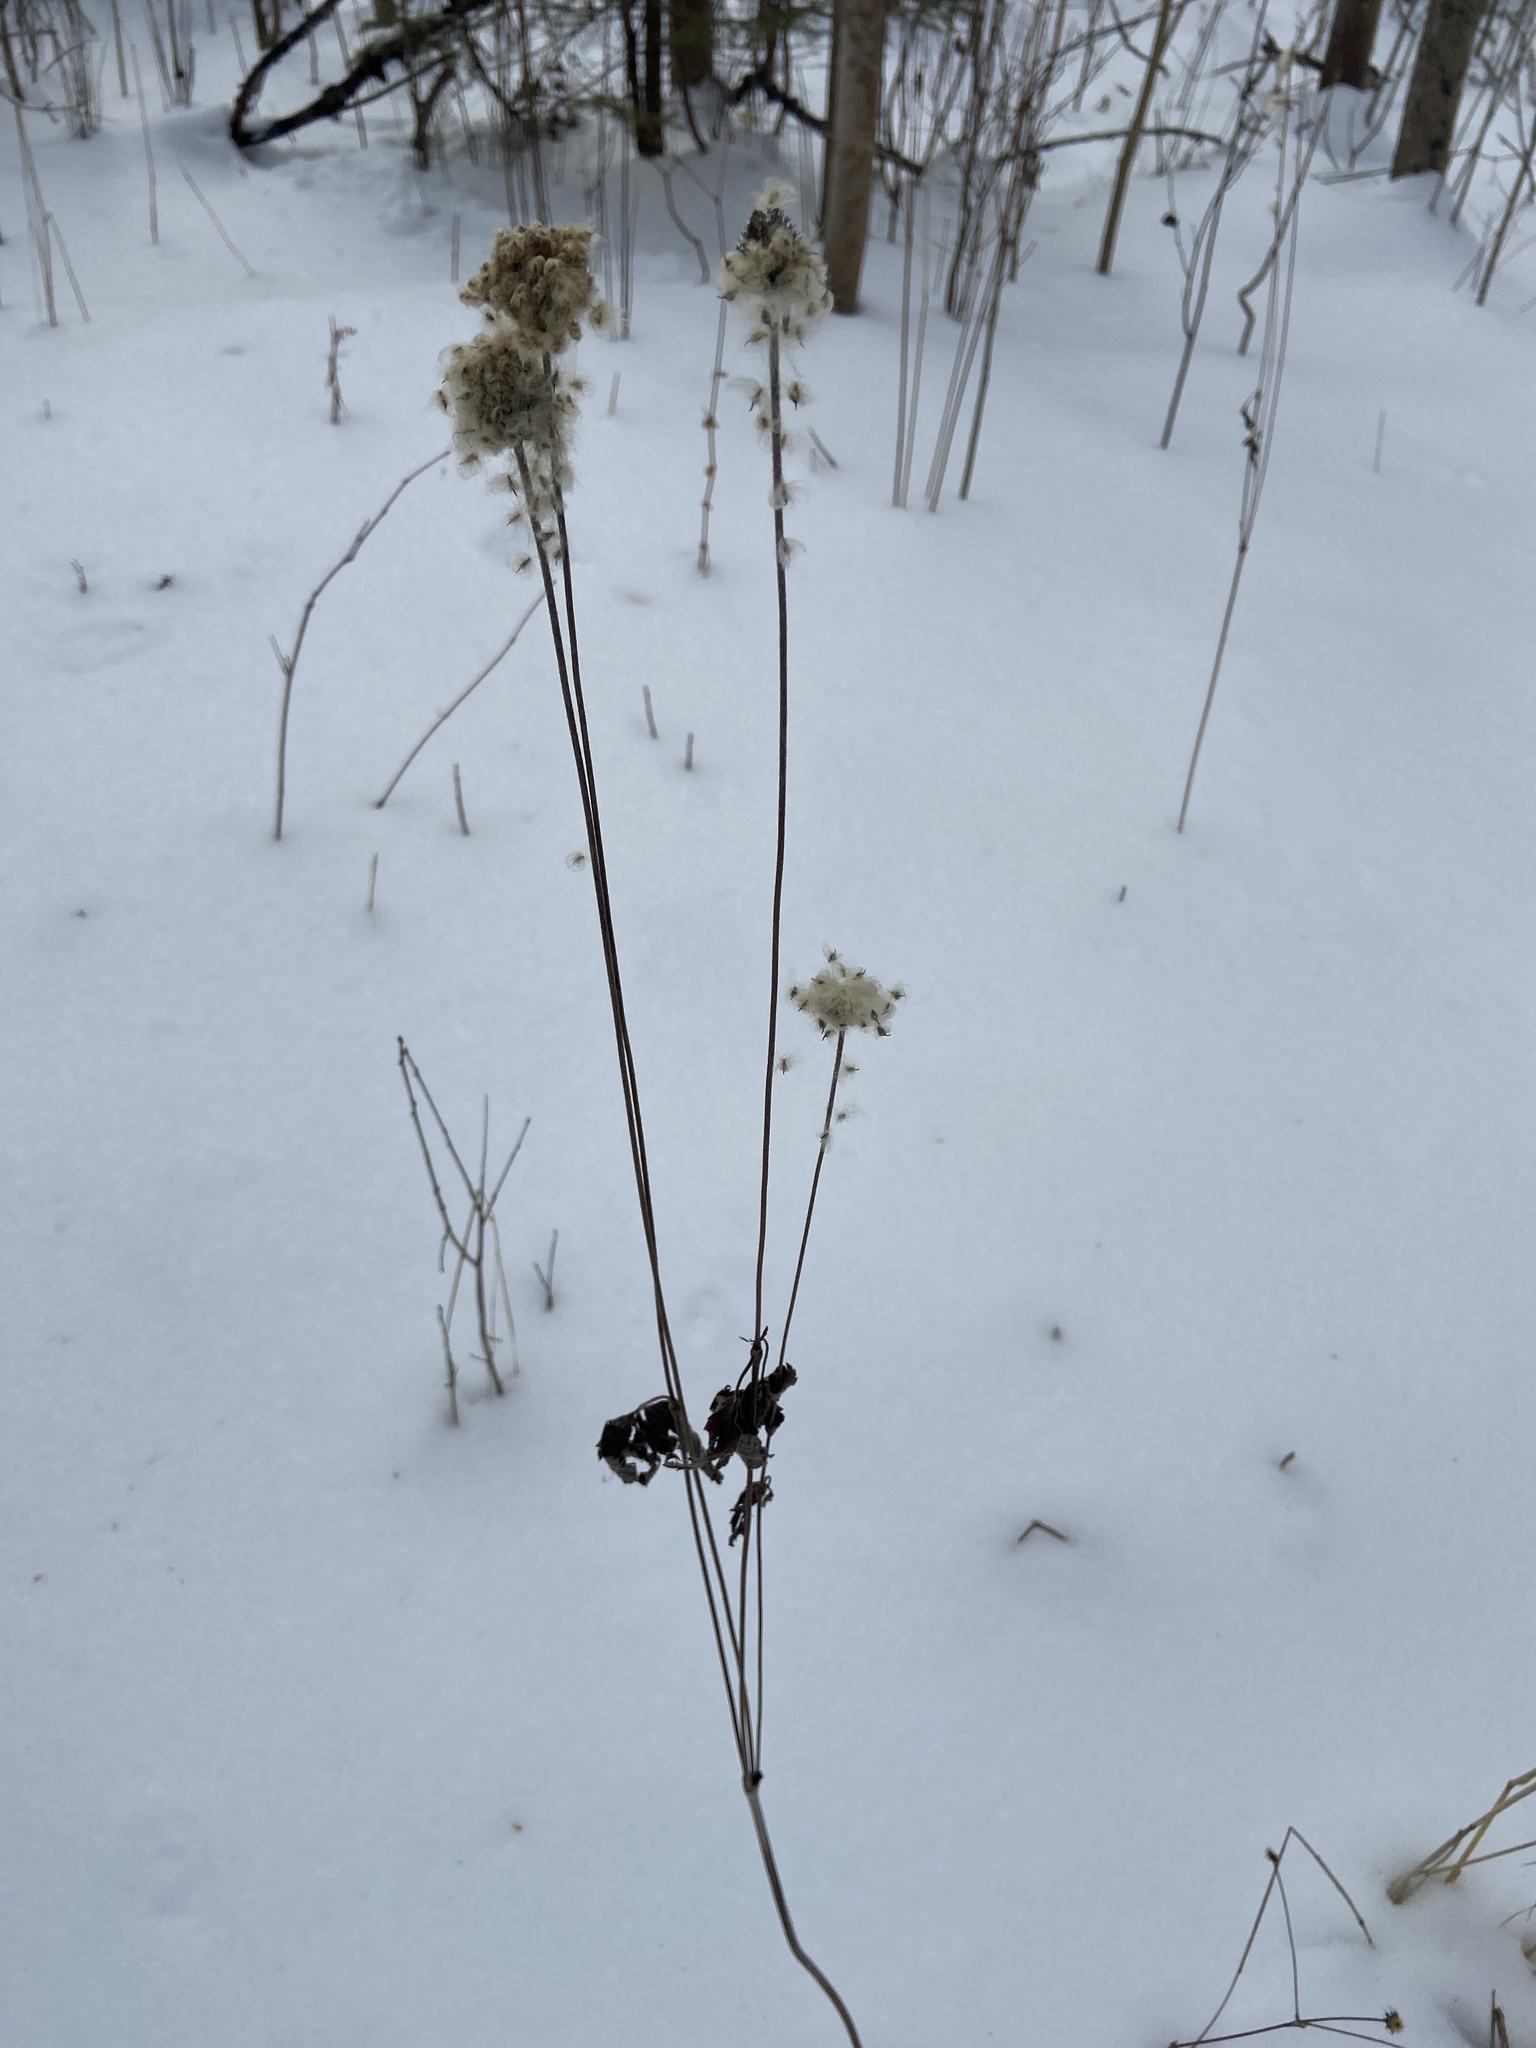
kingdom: Plantae
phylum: Tracheophyta
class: Magnoliopsida
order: Ranunculales
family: Ranunculaceae
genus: Anemone
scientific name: Anemone virginiana
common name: Tall anemone
